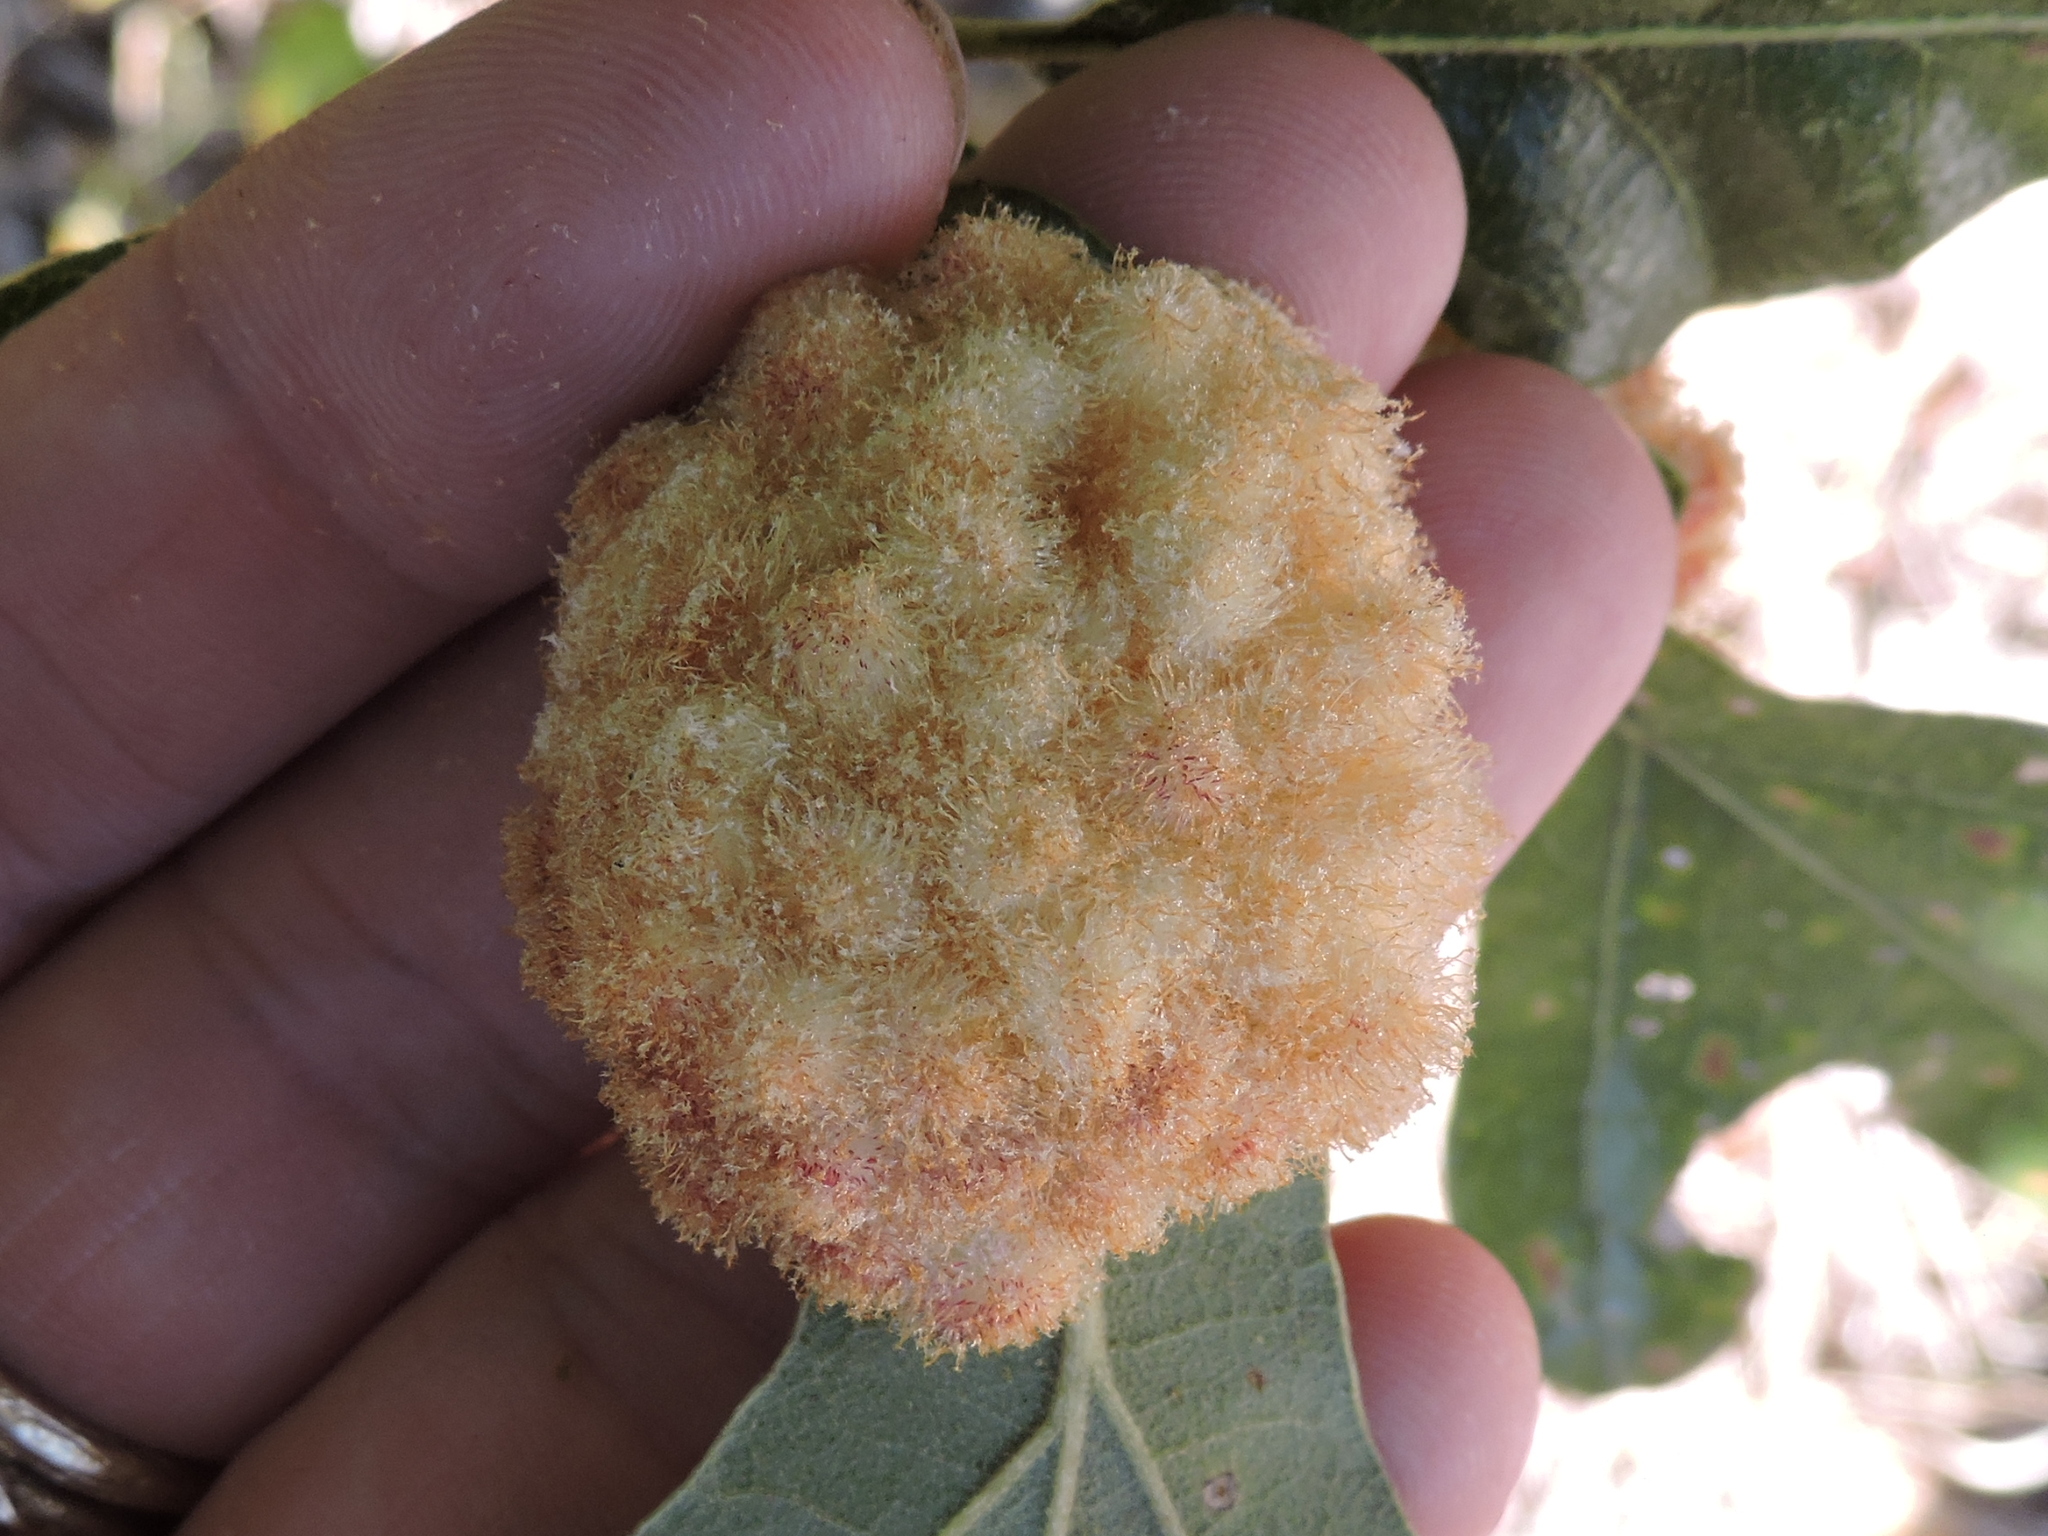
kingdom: Animalia
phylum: Arthropoda
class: Insecta
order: Hymenoptera
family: Cynipidae
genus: Andricus
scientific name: Andricus
